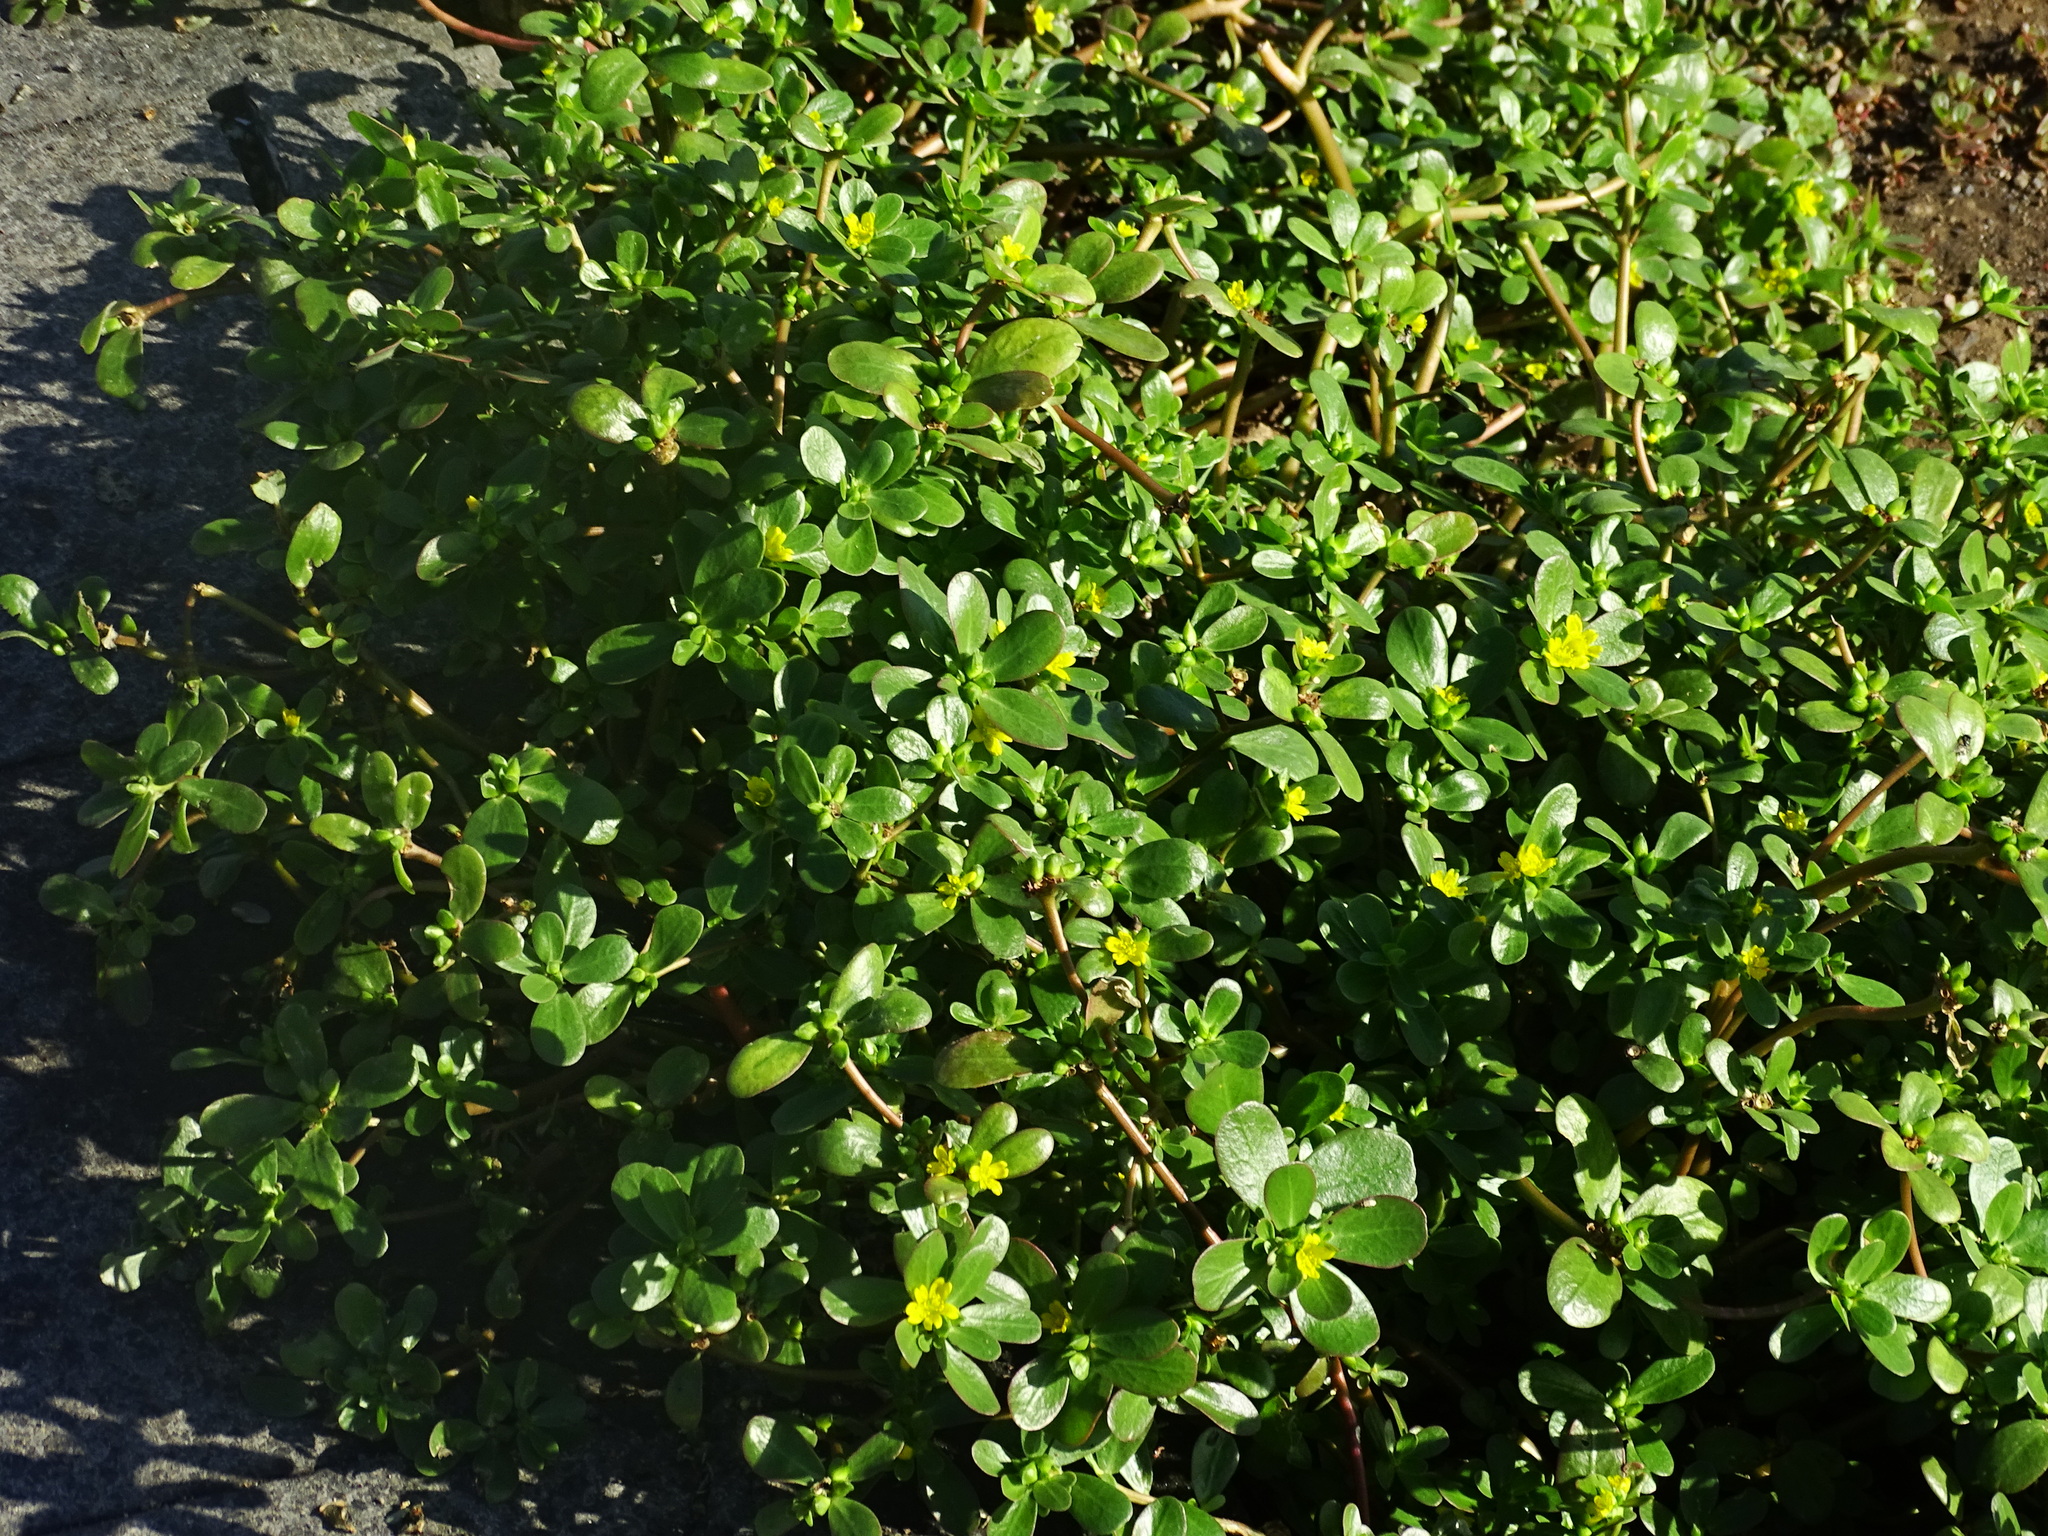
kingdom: Plantae
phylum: Tracheophyta
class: Magnoliopsida
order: Caryophyllales
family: Portulacaceae
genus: Portulaca
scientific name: Portulaca oleracea
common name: Common purslane
